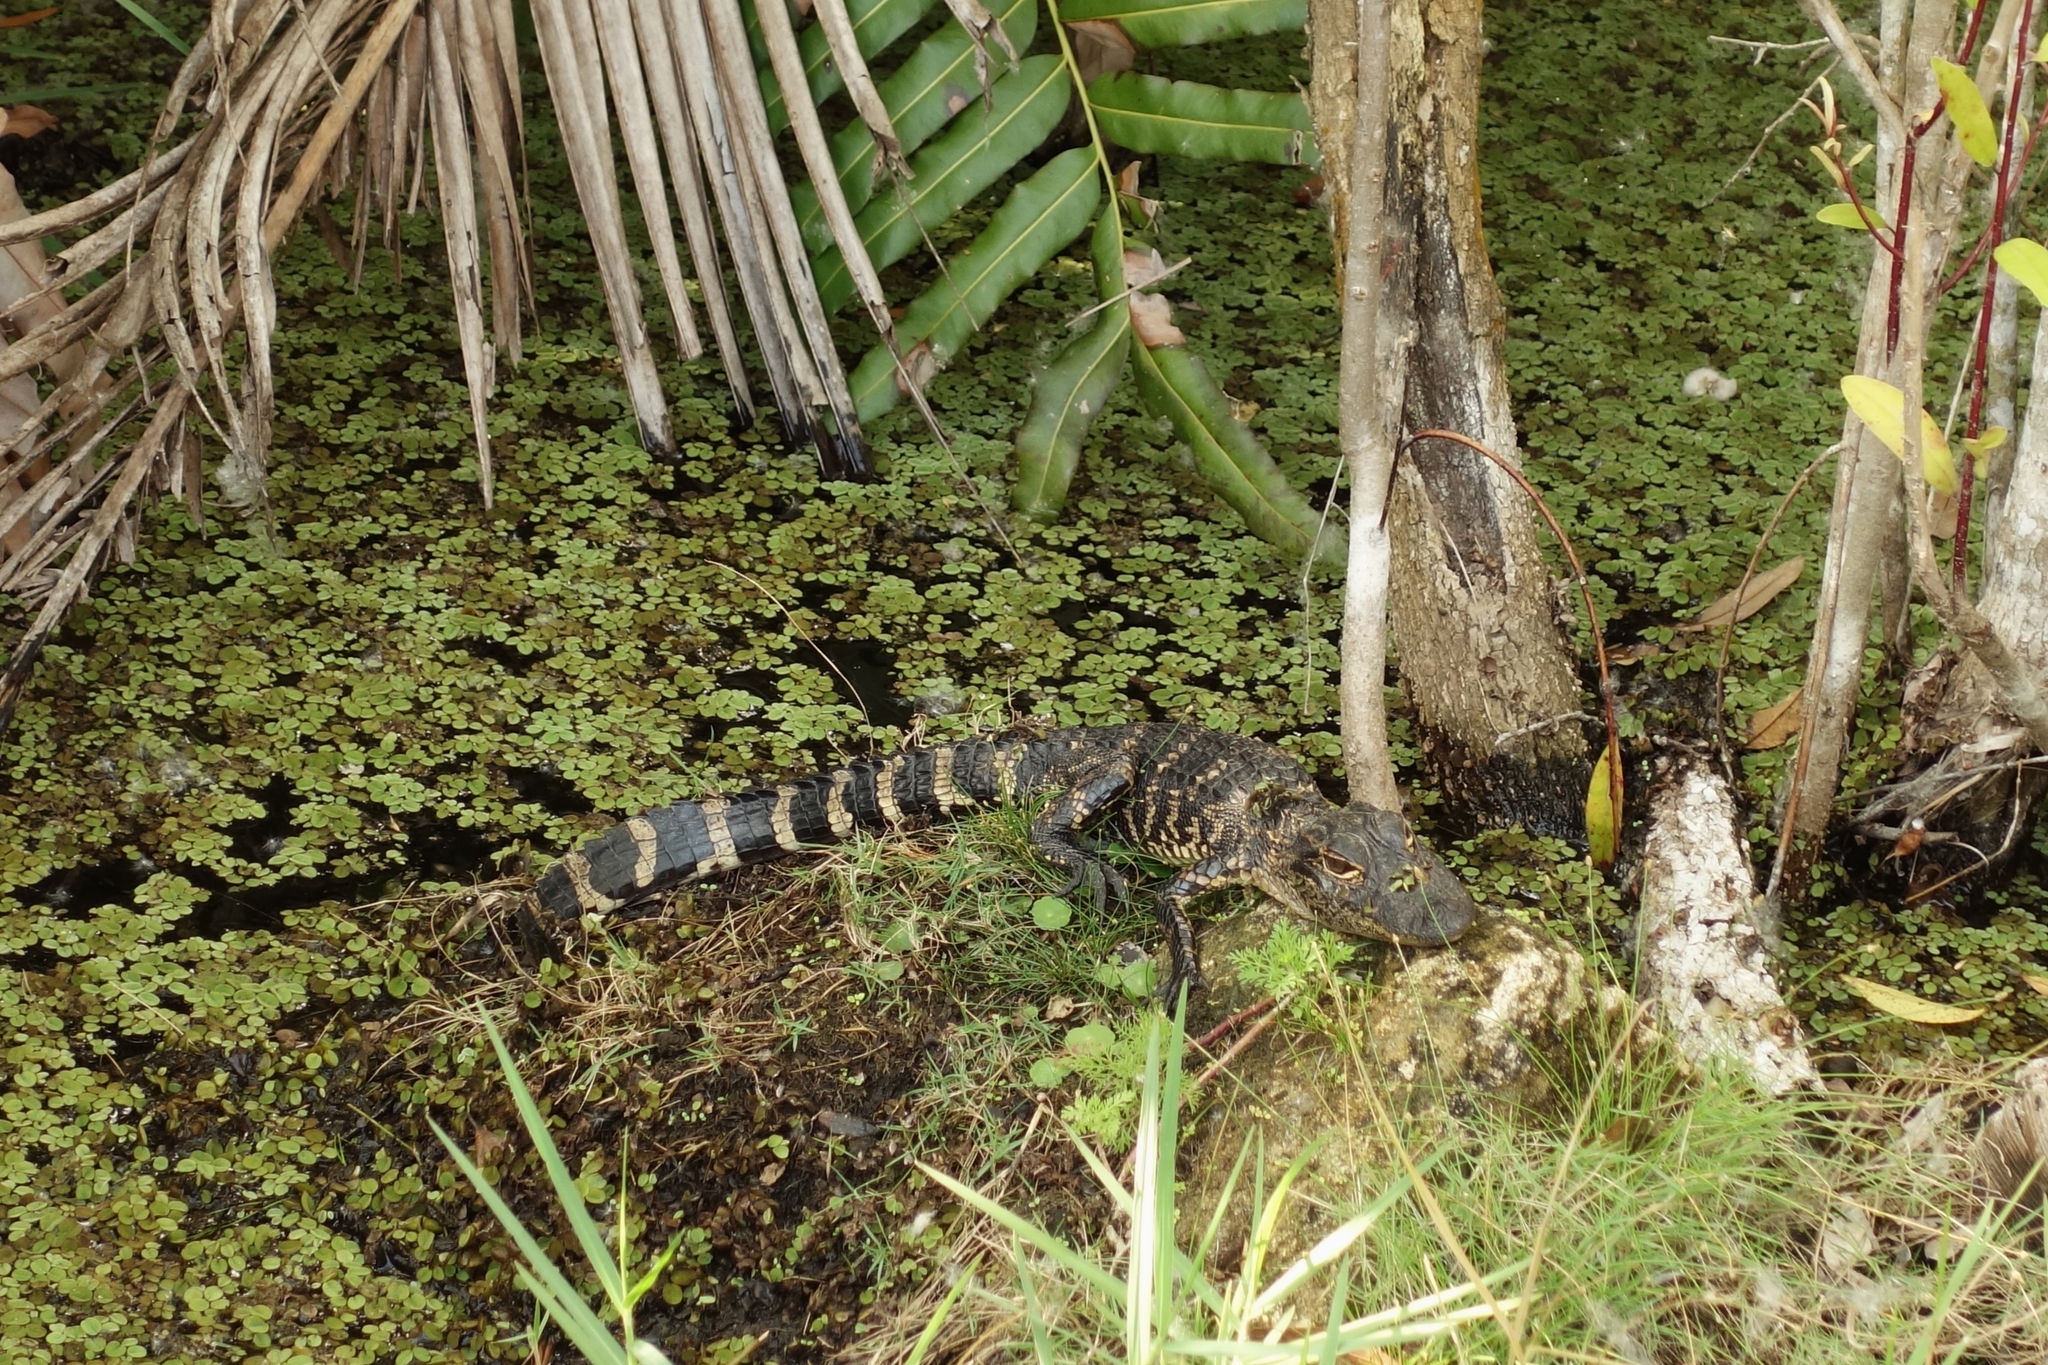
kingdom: Animalia
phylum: Chordata
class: Crocodylia
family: Alligatoridae
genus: Alligator
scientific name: Alligator mississippiensis
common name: American alligator
